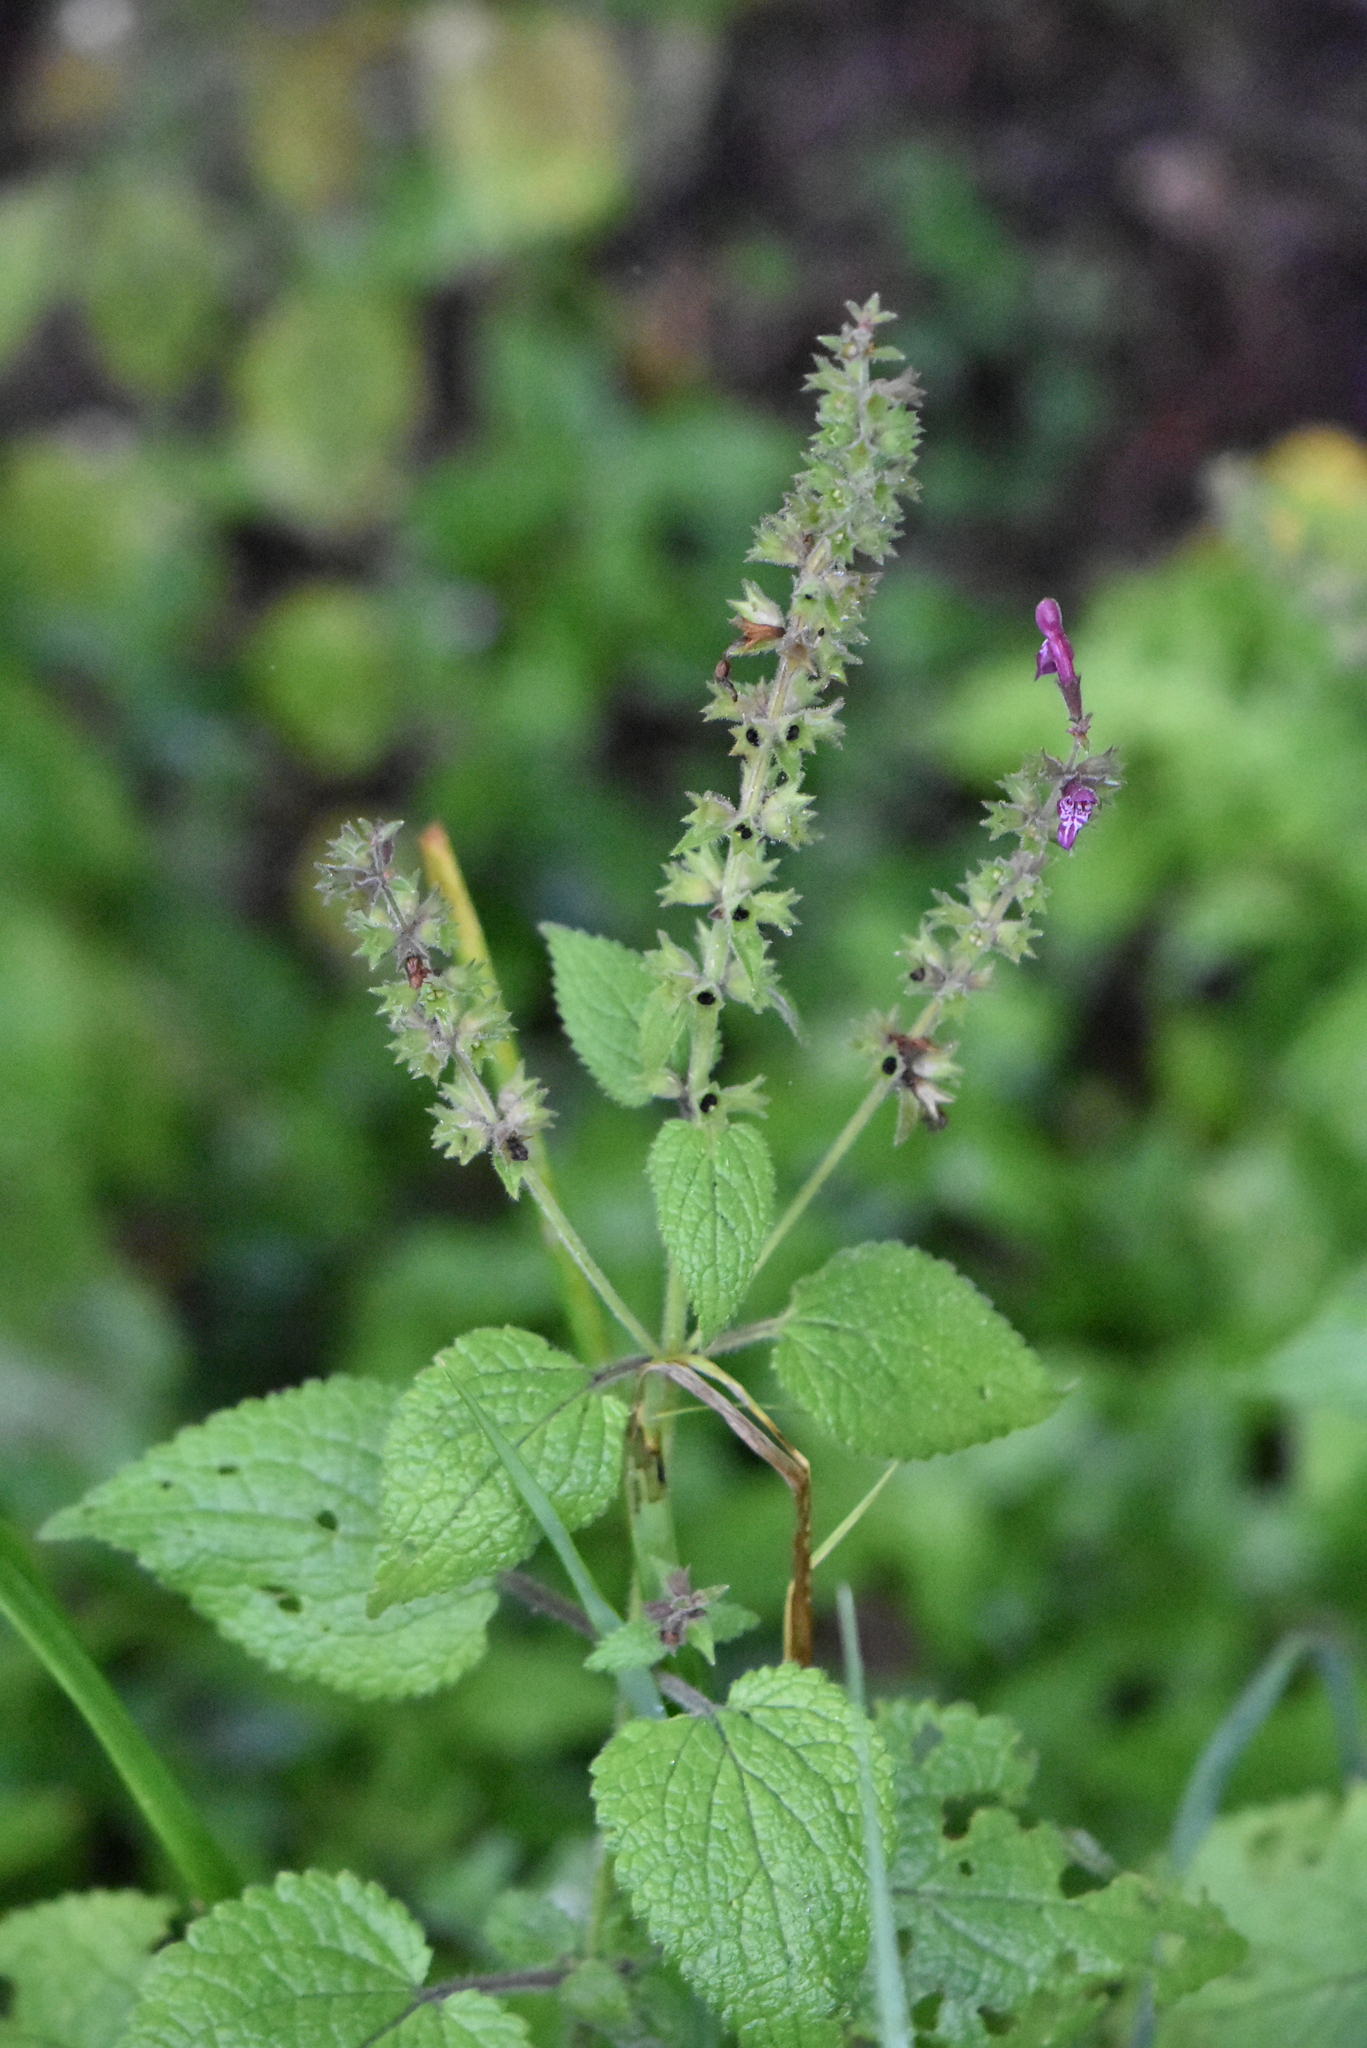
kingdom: Plantae
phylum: Tracheophyta
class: Magnoliopsida
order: Lamiales
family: Lamiaceae
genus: Stachys
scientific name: Stachys sylvatica
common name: Hedge woundwort
